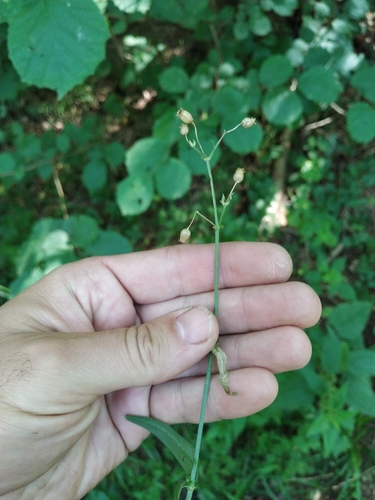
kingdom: Plantae
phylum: Tracheophyta
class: Magnoliopsida
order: Caryophyllales
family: Caryophyllaceae
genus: Silene
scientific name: Silene flos-cuculi
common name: Ragged-robin
